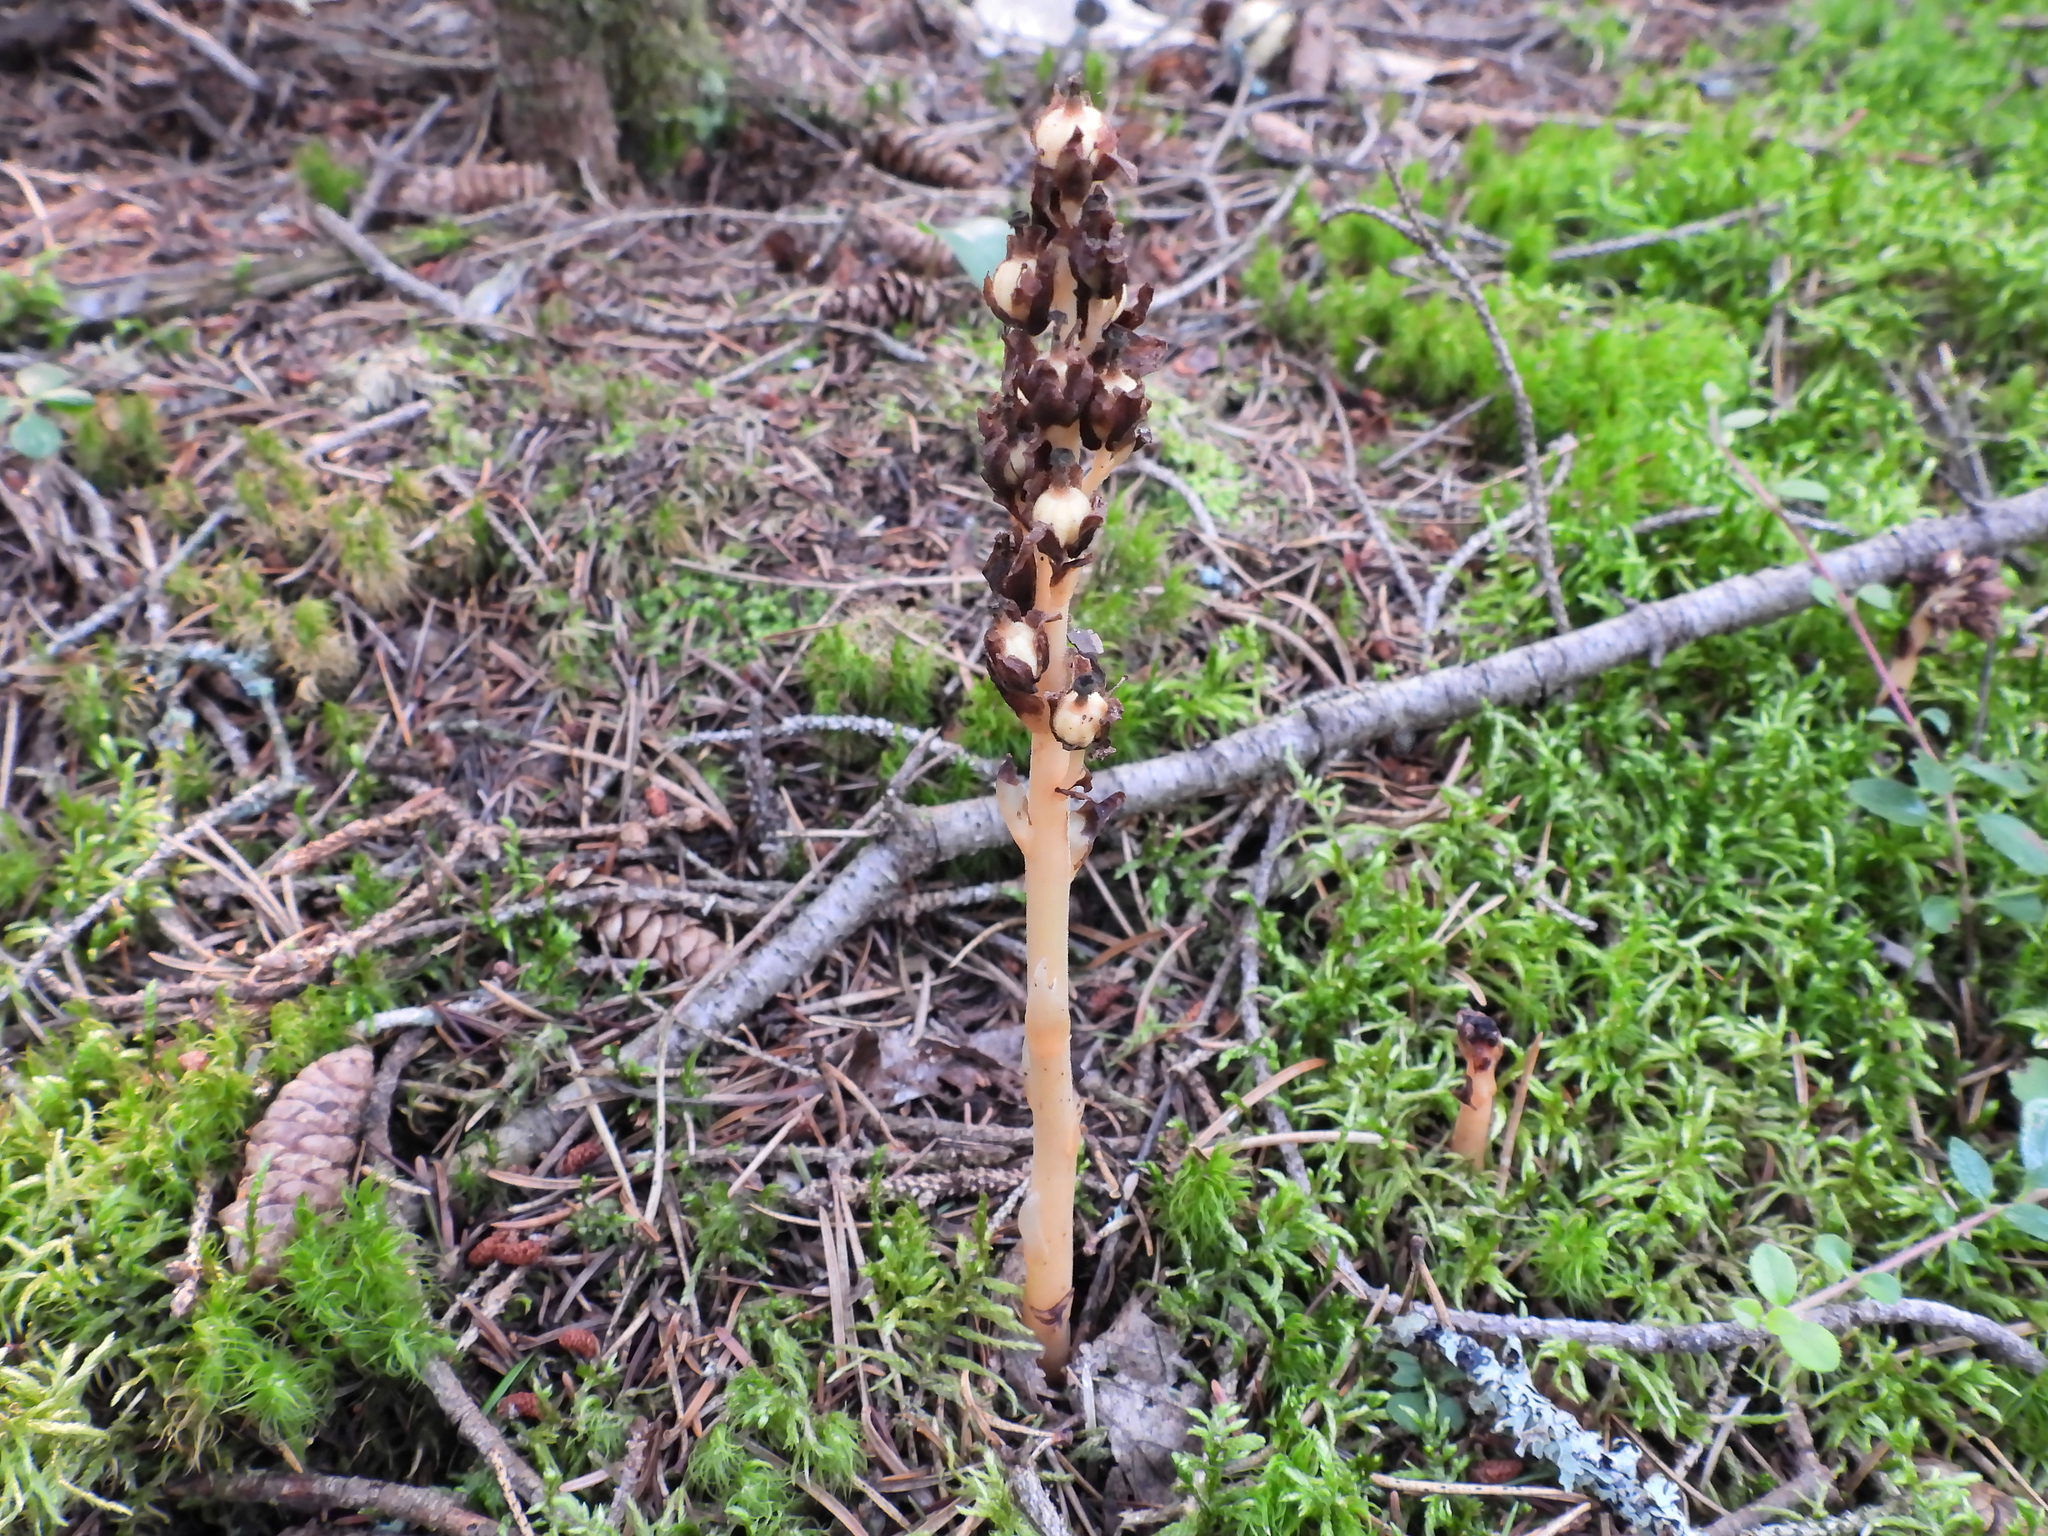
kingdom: Plantae
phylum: Tracheophyta
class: Magnoliopsida
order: Ericales
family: Ericaceae
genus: Hypopitys
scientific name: Hypopitys monotropa
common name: Yellow bird's-nest
